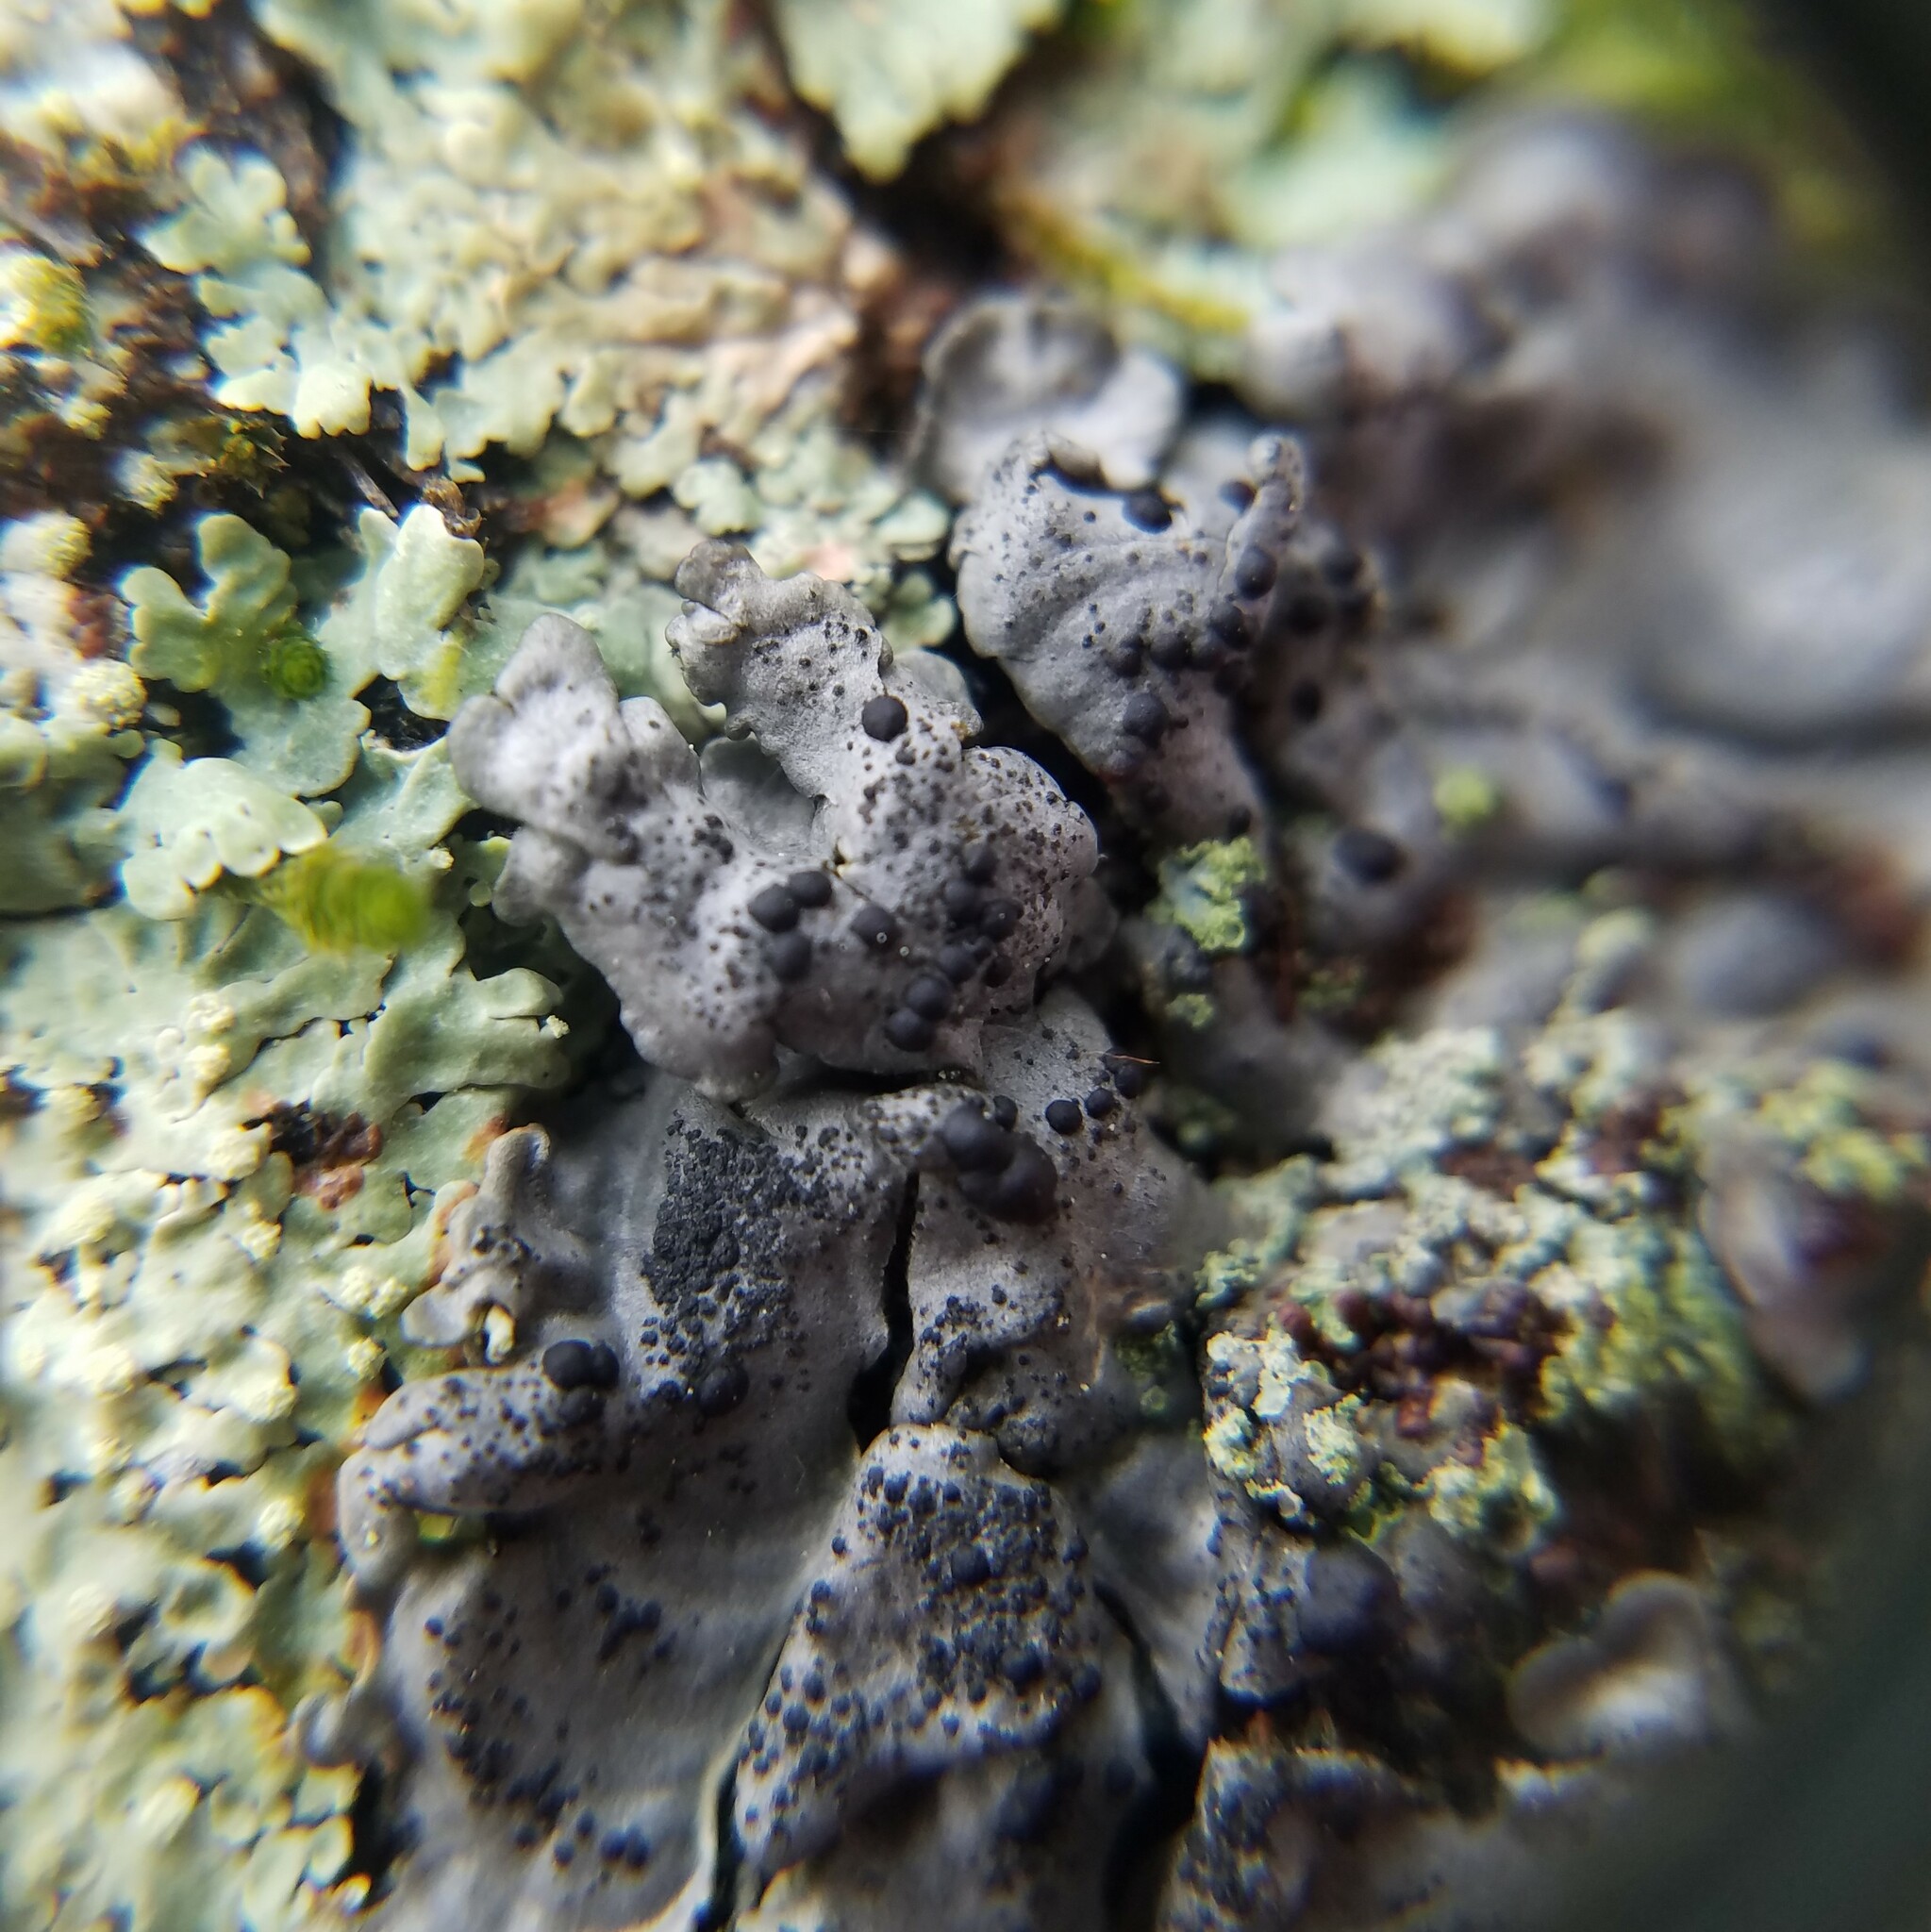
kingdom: Fungi
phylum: Ascomycota
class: Lecanoromycetes
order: Peltigerales
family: Coccocarpiaceae
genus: Coccocarpia
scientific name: Coccocarpia erythroxyli
